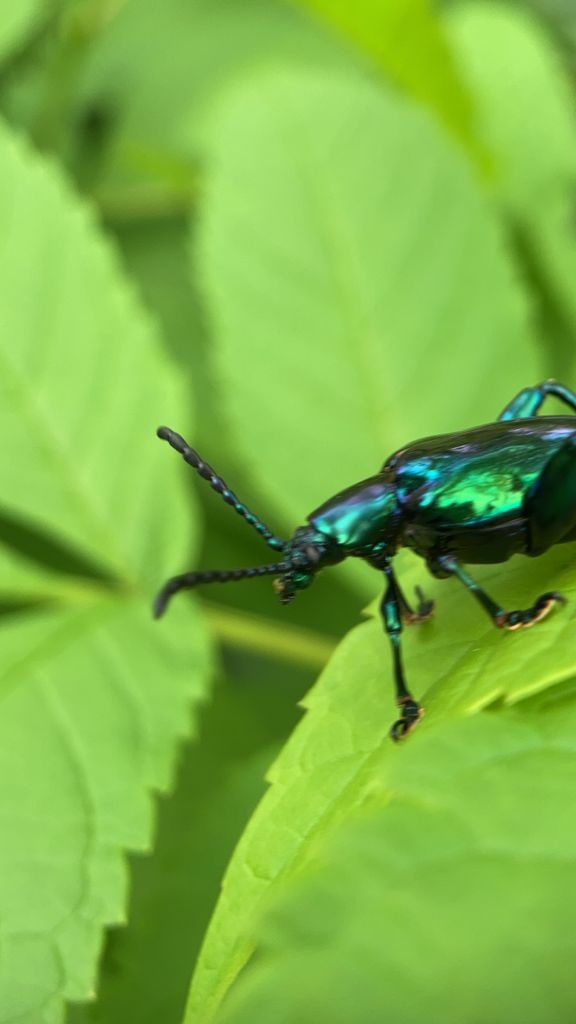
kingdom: Animalia
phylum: Arthropoda
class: Insecta
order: Coleoptera
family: Chrysomelidae
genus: Sagra
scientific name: Sagra femorata
